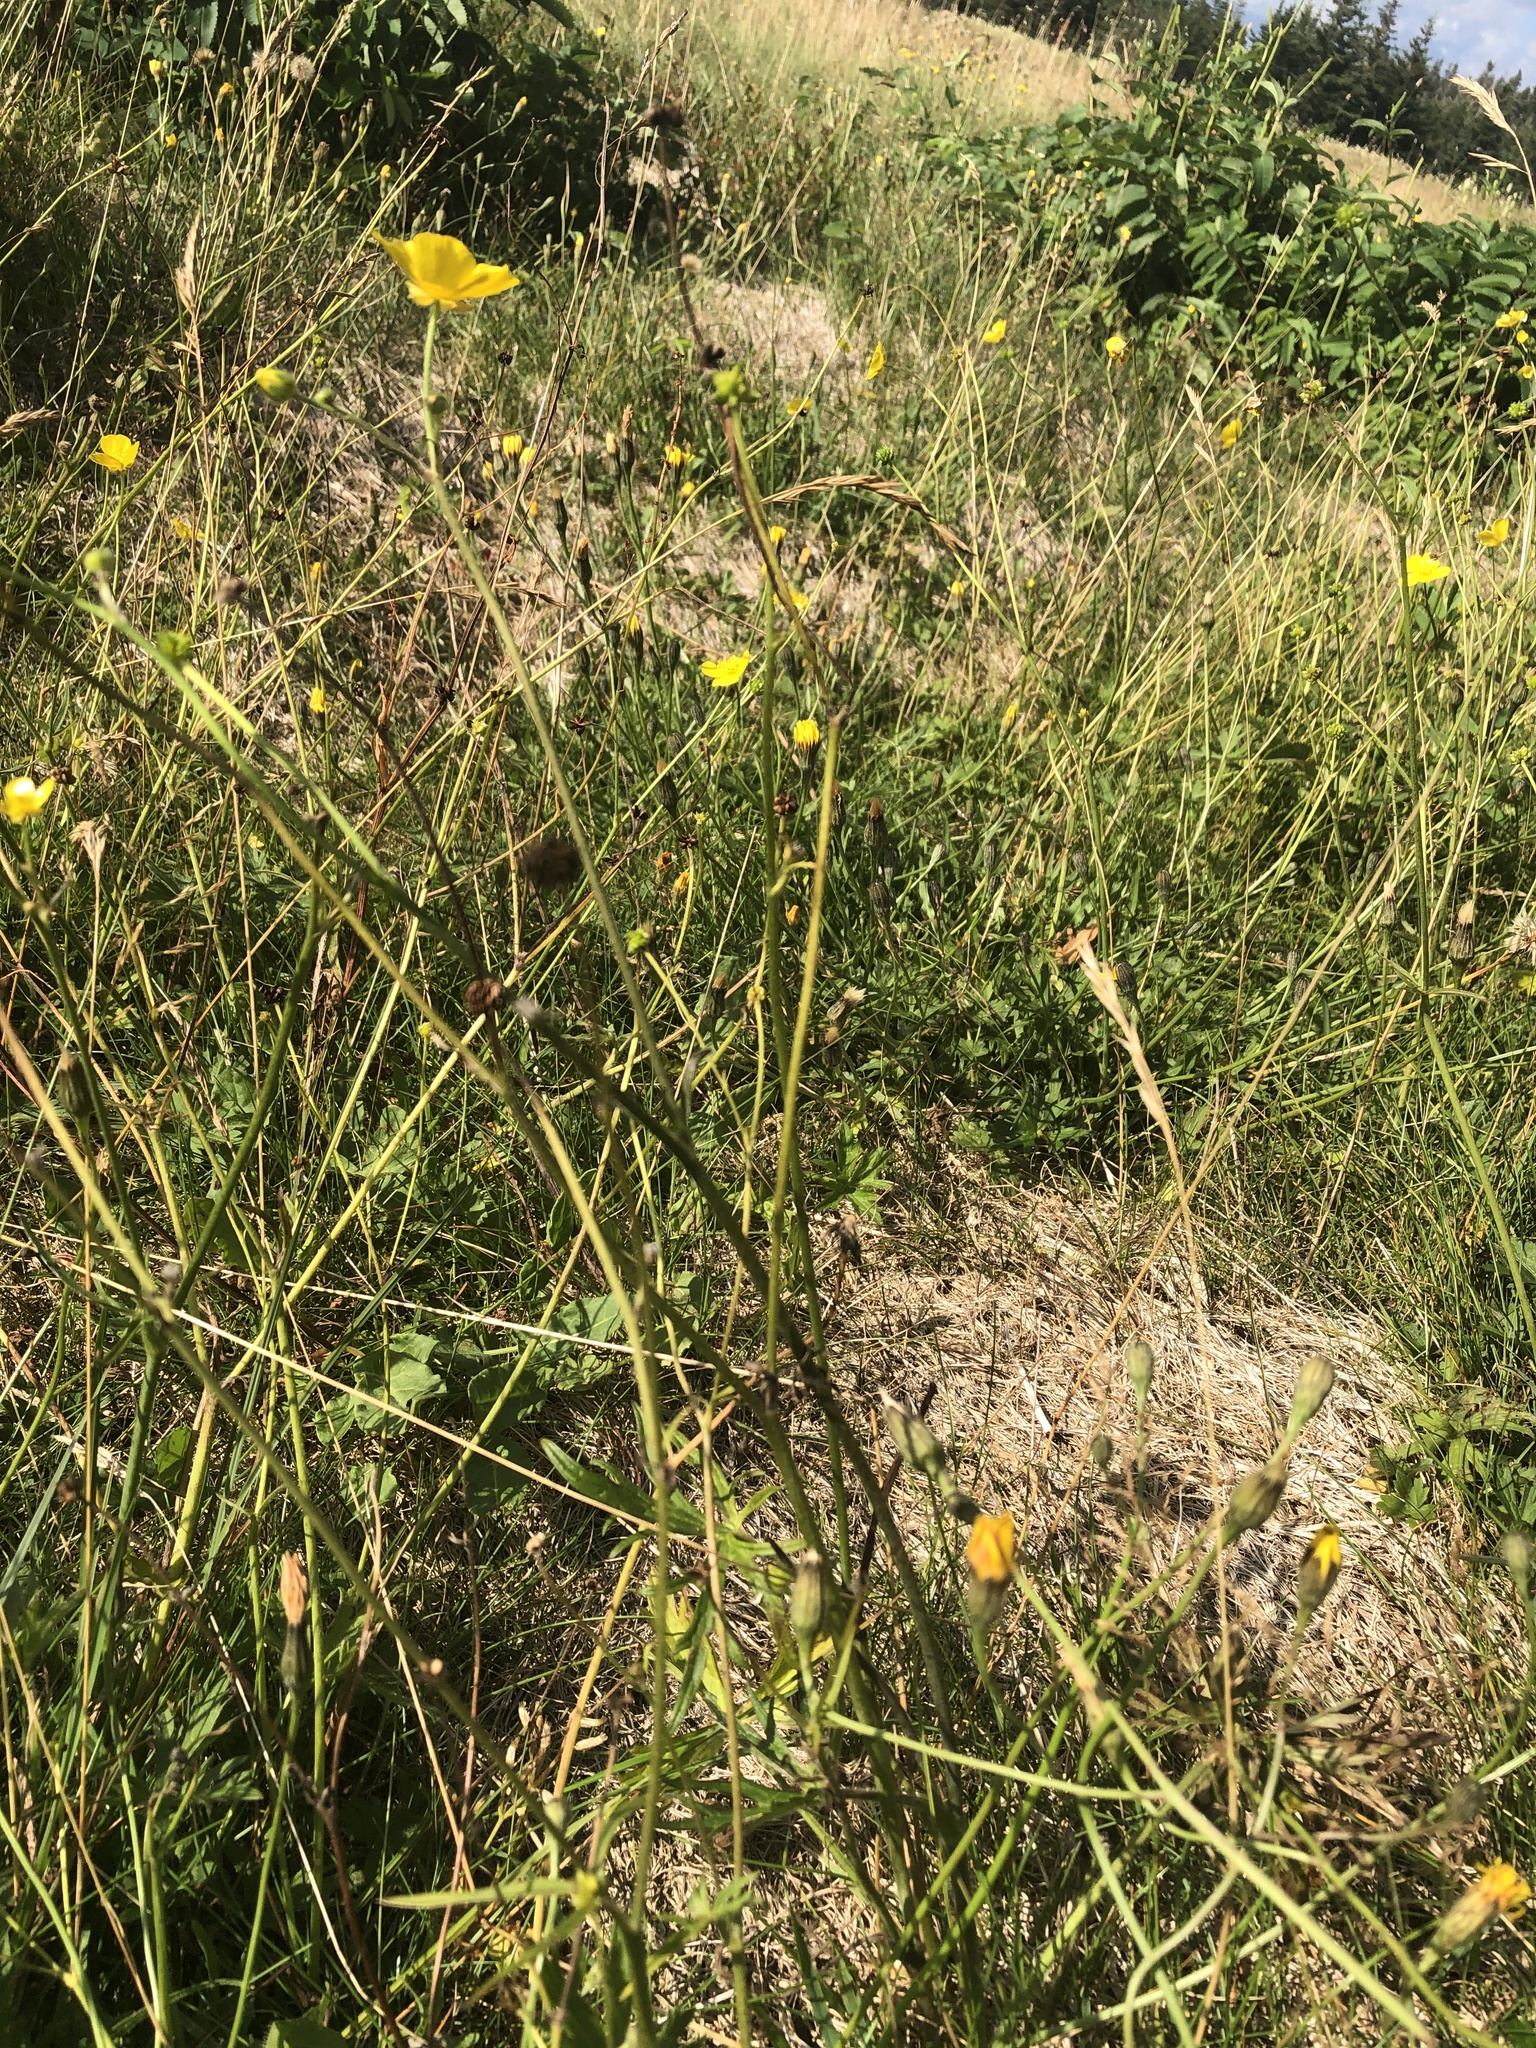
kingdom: Plantae
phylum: Tracheophyta
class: Magnoliopsida
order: Ranunculales
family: Ranunculaceae
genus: Ranunculus
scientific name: Ranunculus acris
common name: Meadow buttercup
